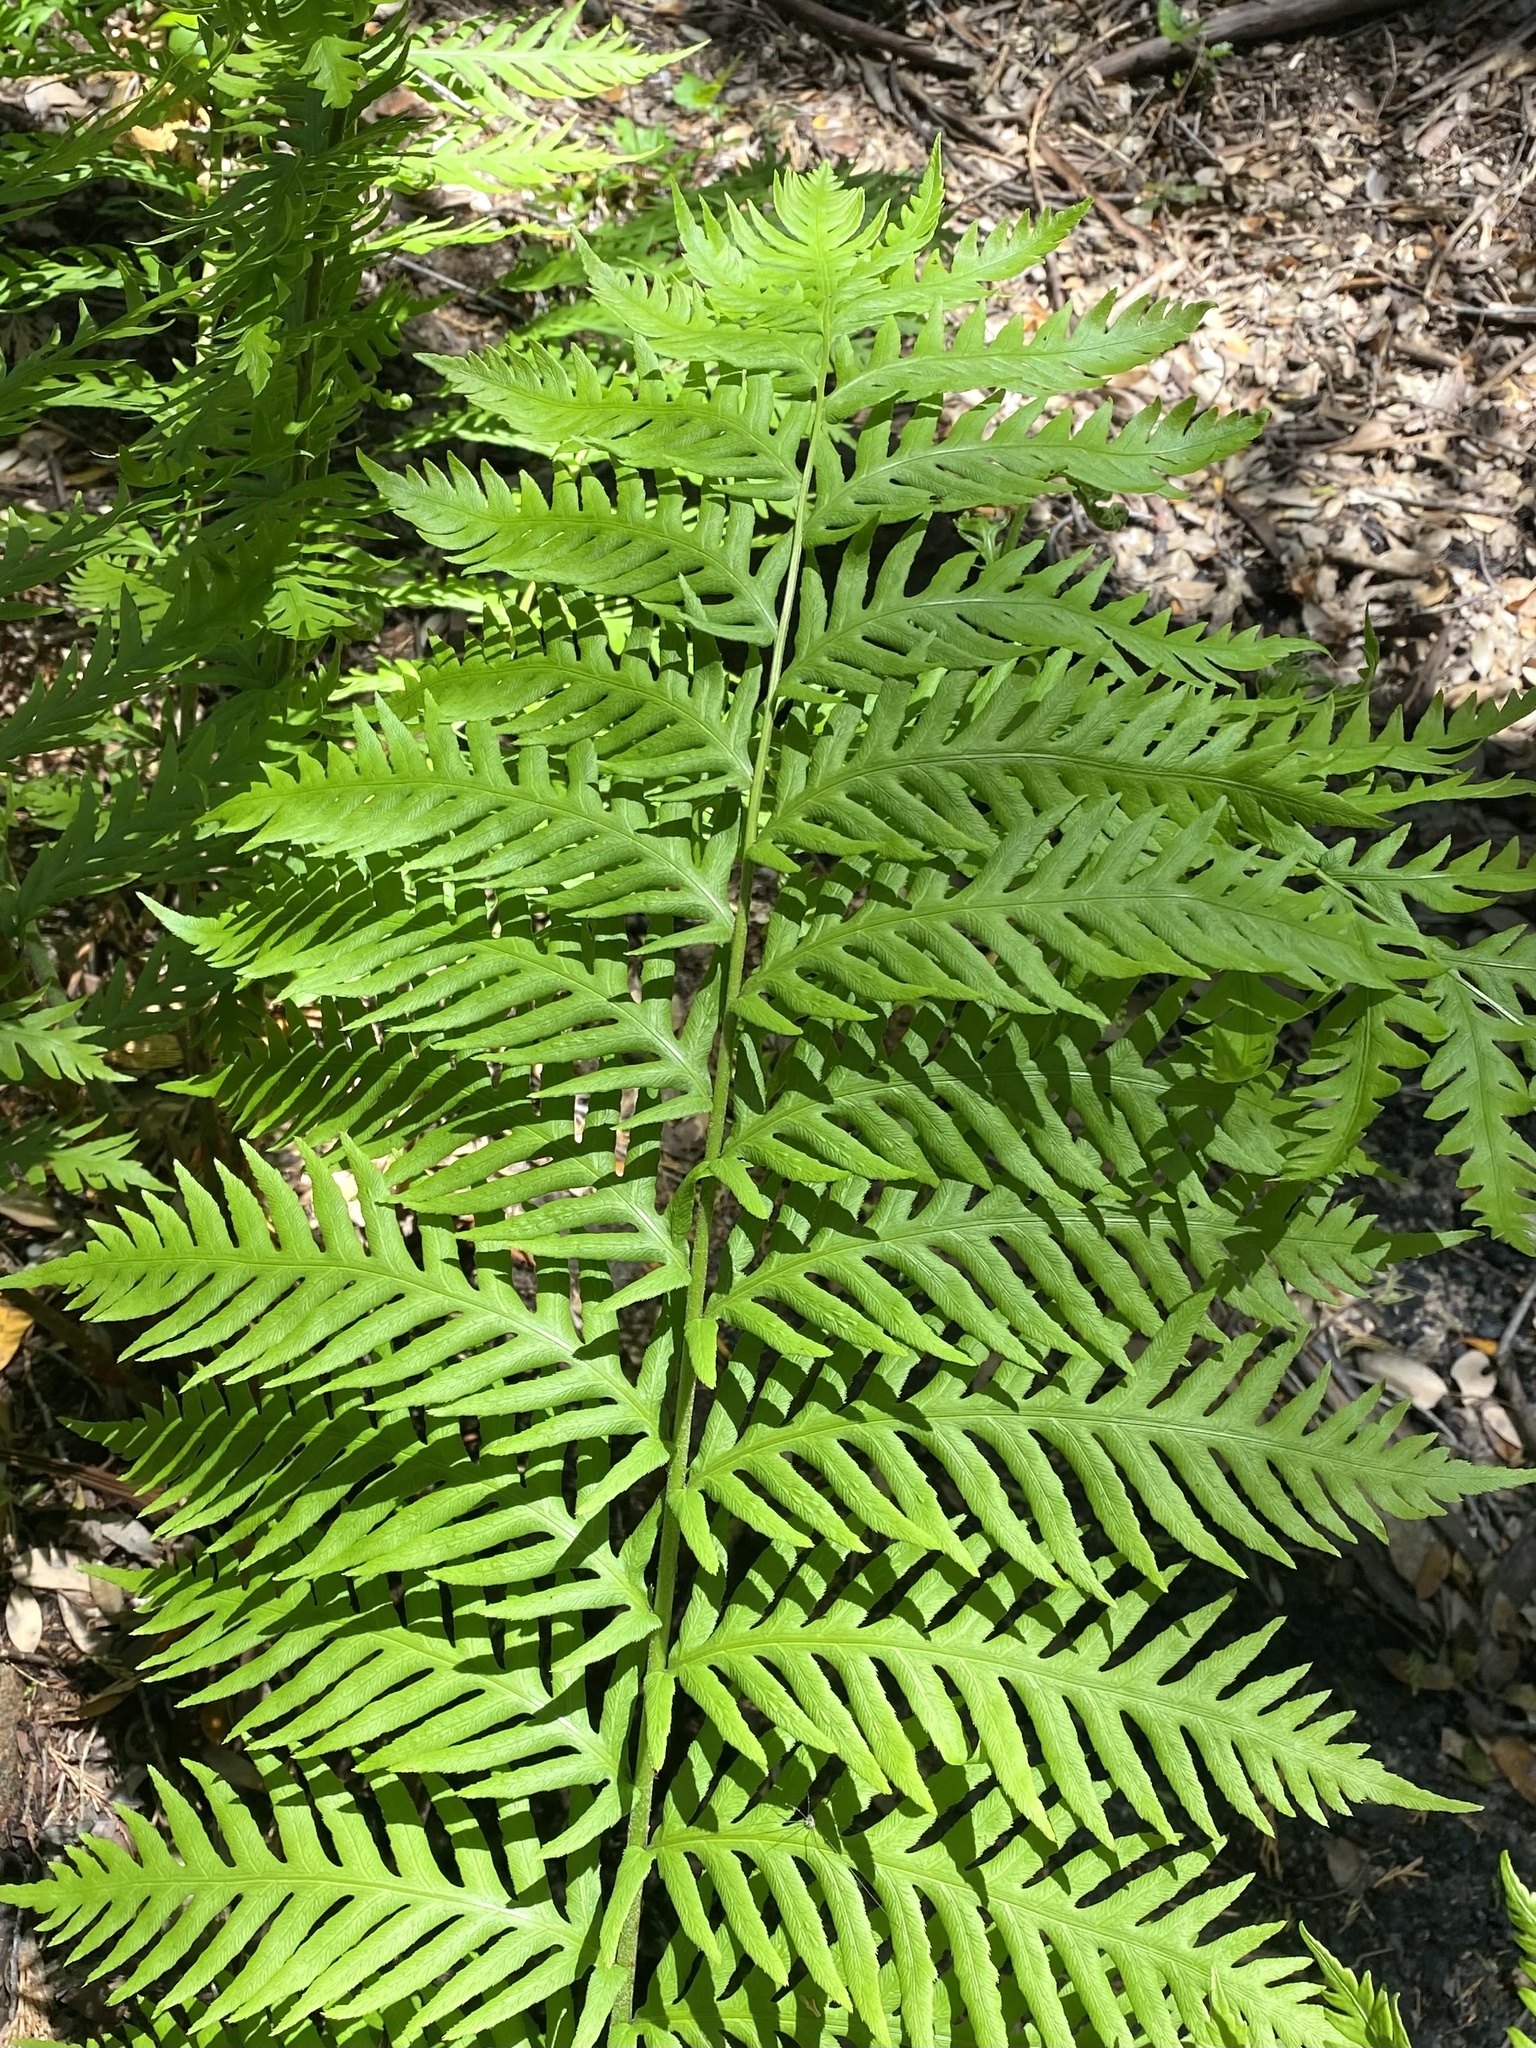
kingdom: Plantae
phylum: Tracheophyta
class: Polypodiopsida
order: Polypodiales
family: Blechnaceae
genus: Woodwardia
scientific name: Woodwardia fimbriata
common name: Giant chain fern
